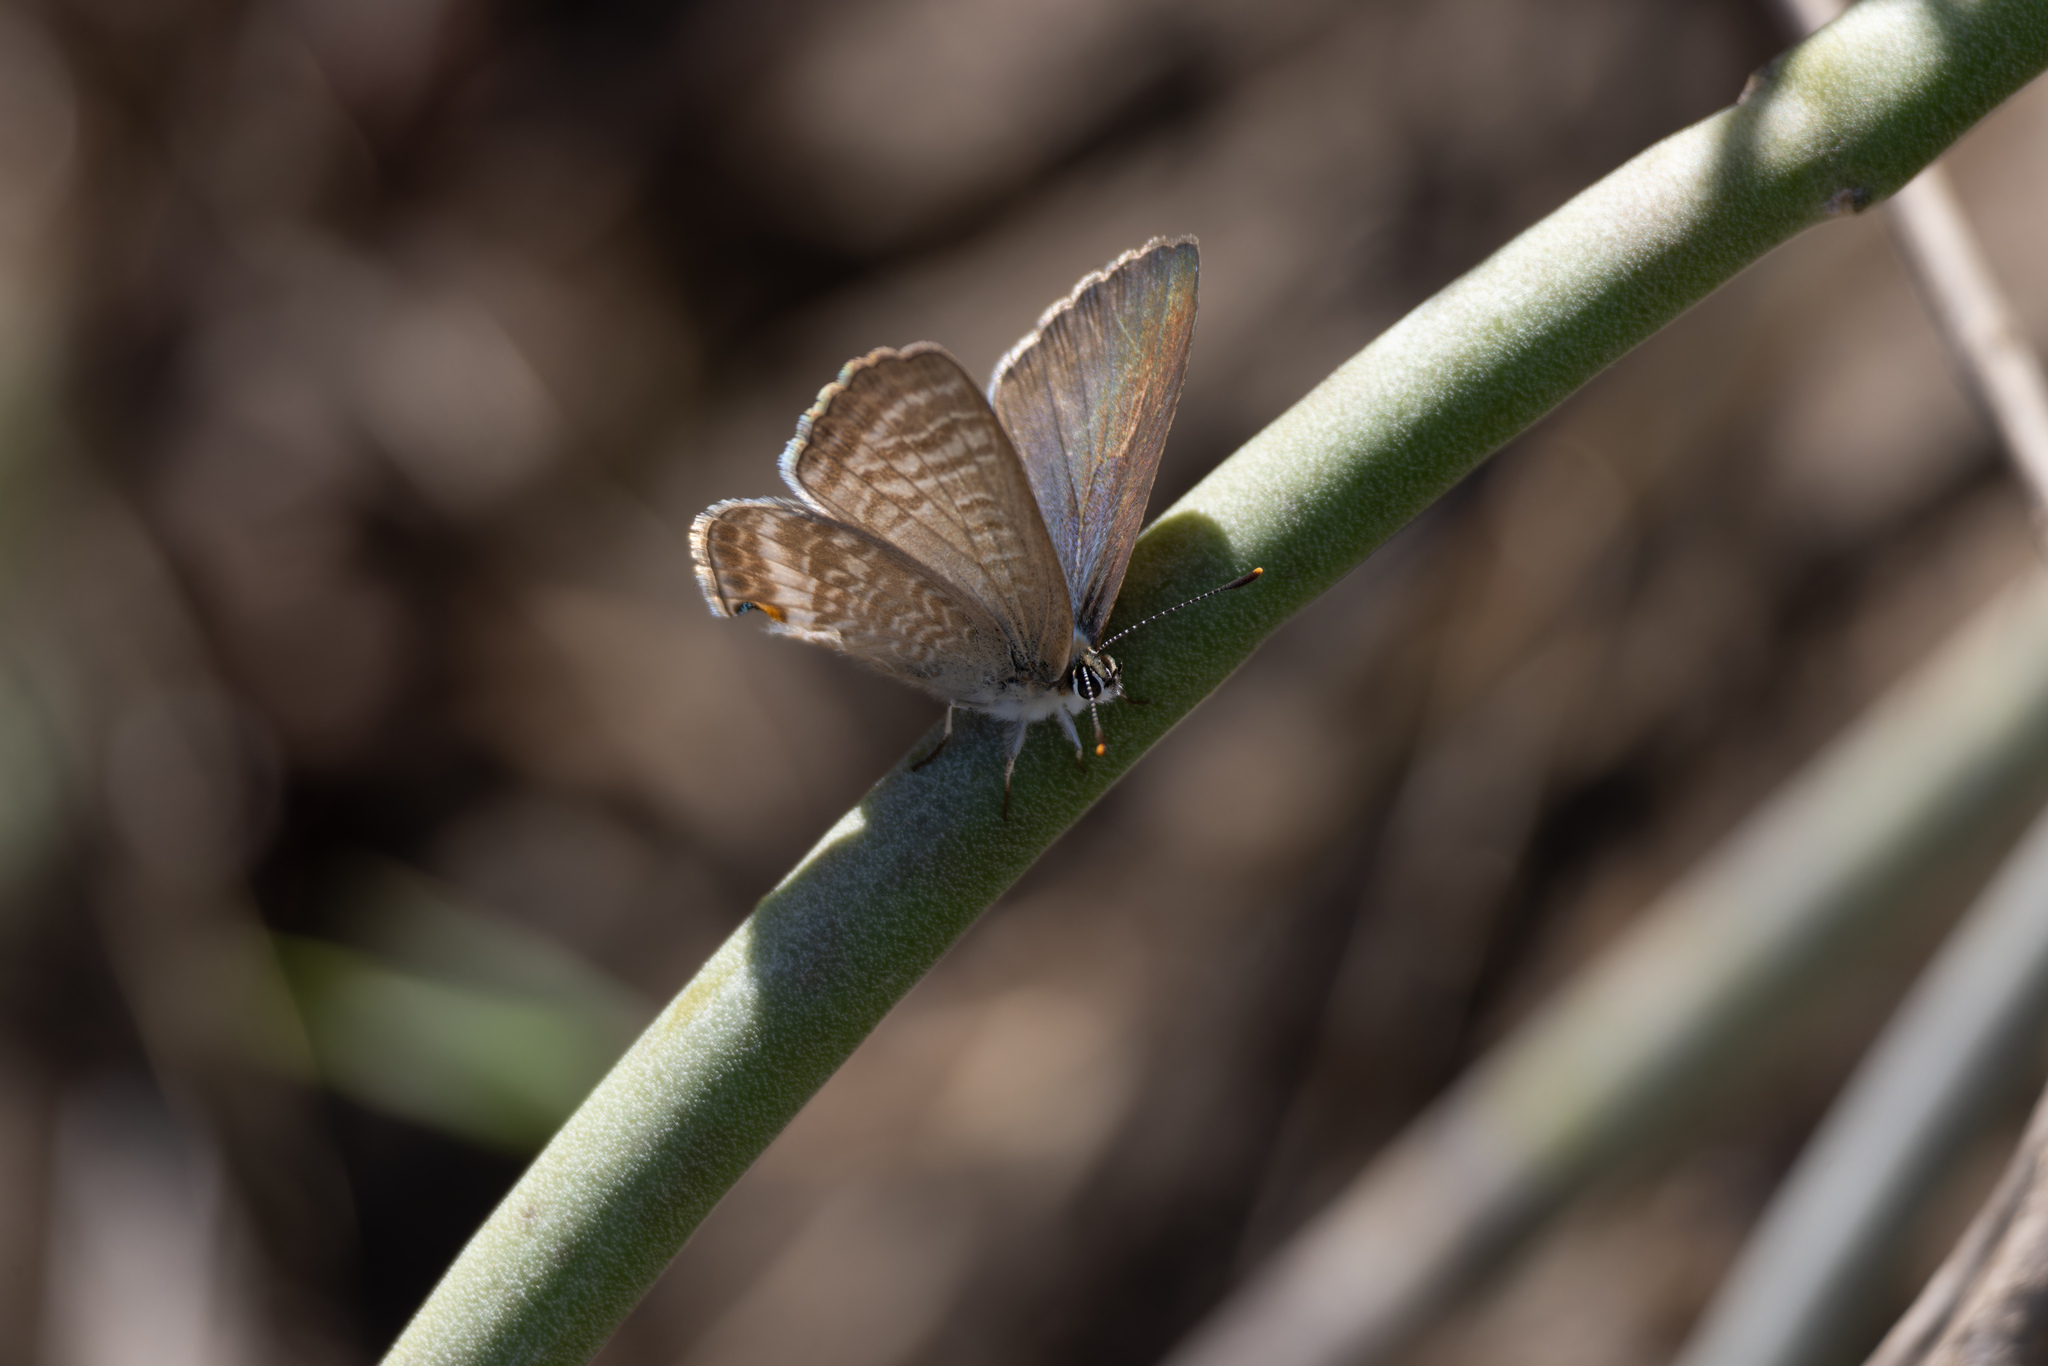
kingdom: Animalia
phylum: Arthropoda
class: Insecta
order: Lepidoptera
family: Lycaenidae
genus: Lampides
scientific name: Lampides boeticus
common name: Long-tailed blue
